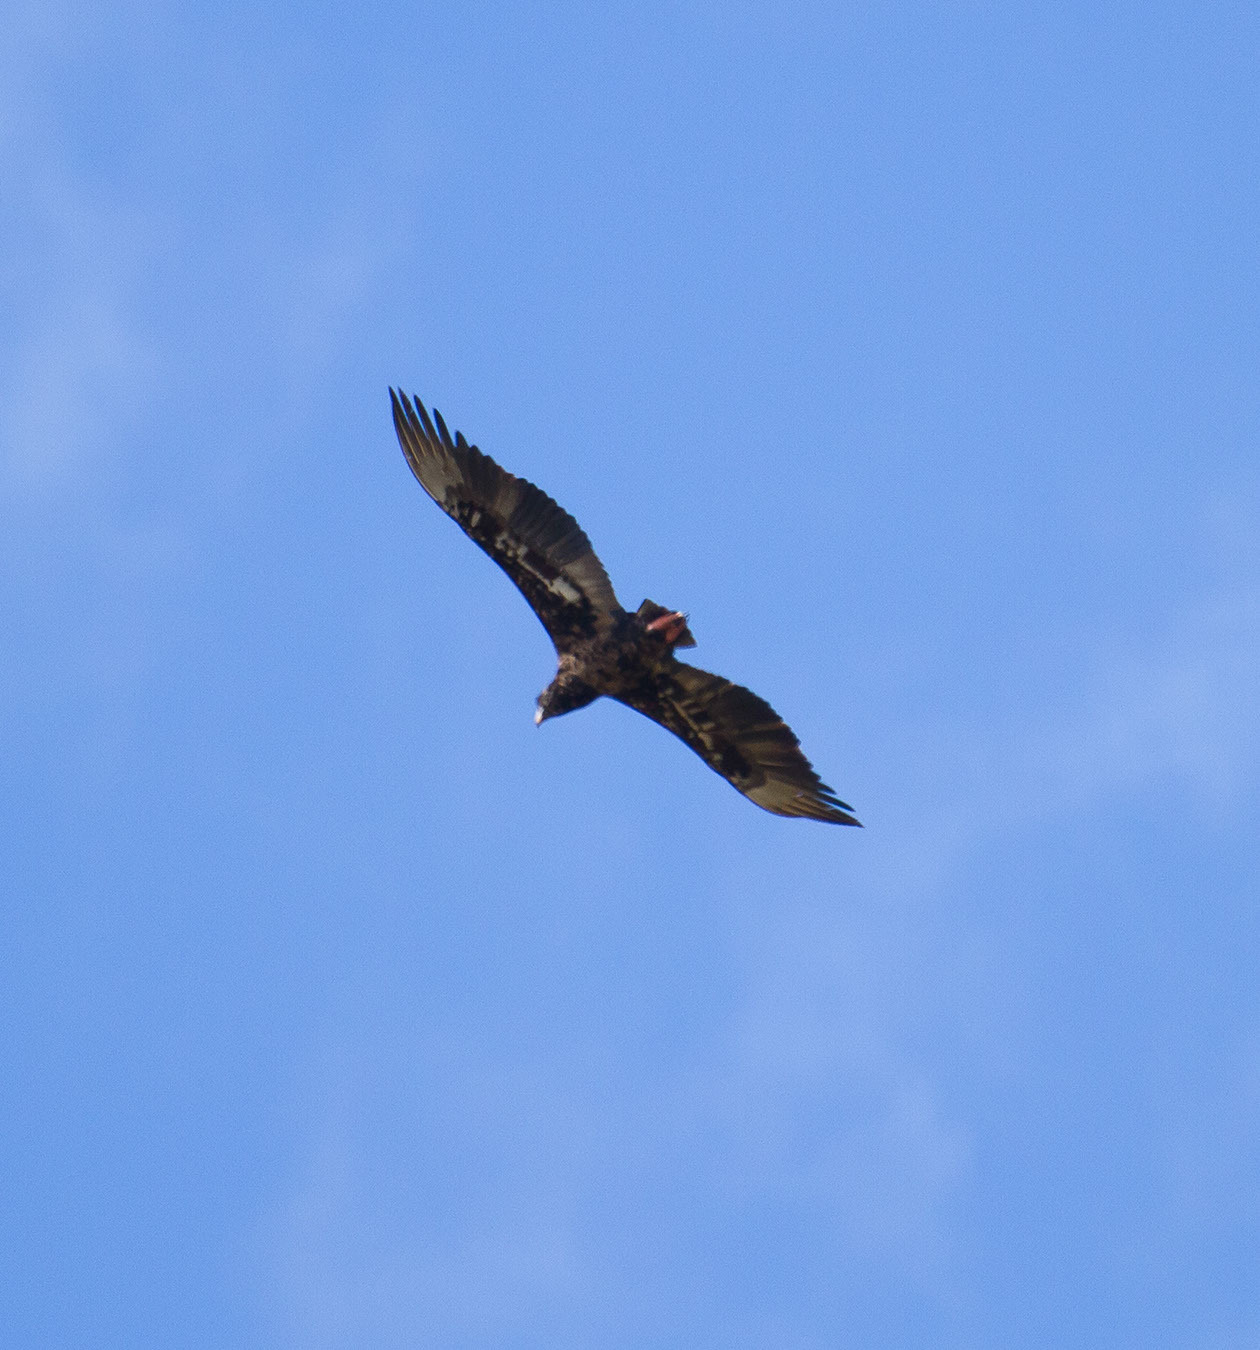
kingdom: Animalia
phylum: Chordata
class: Aves
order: Accipitriformes
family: Accipitridae
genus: Terathopius
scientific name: Terathopius ecaudatus
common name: Bateleur
